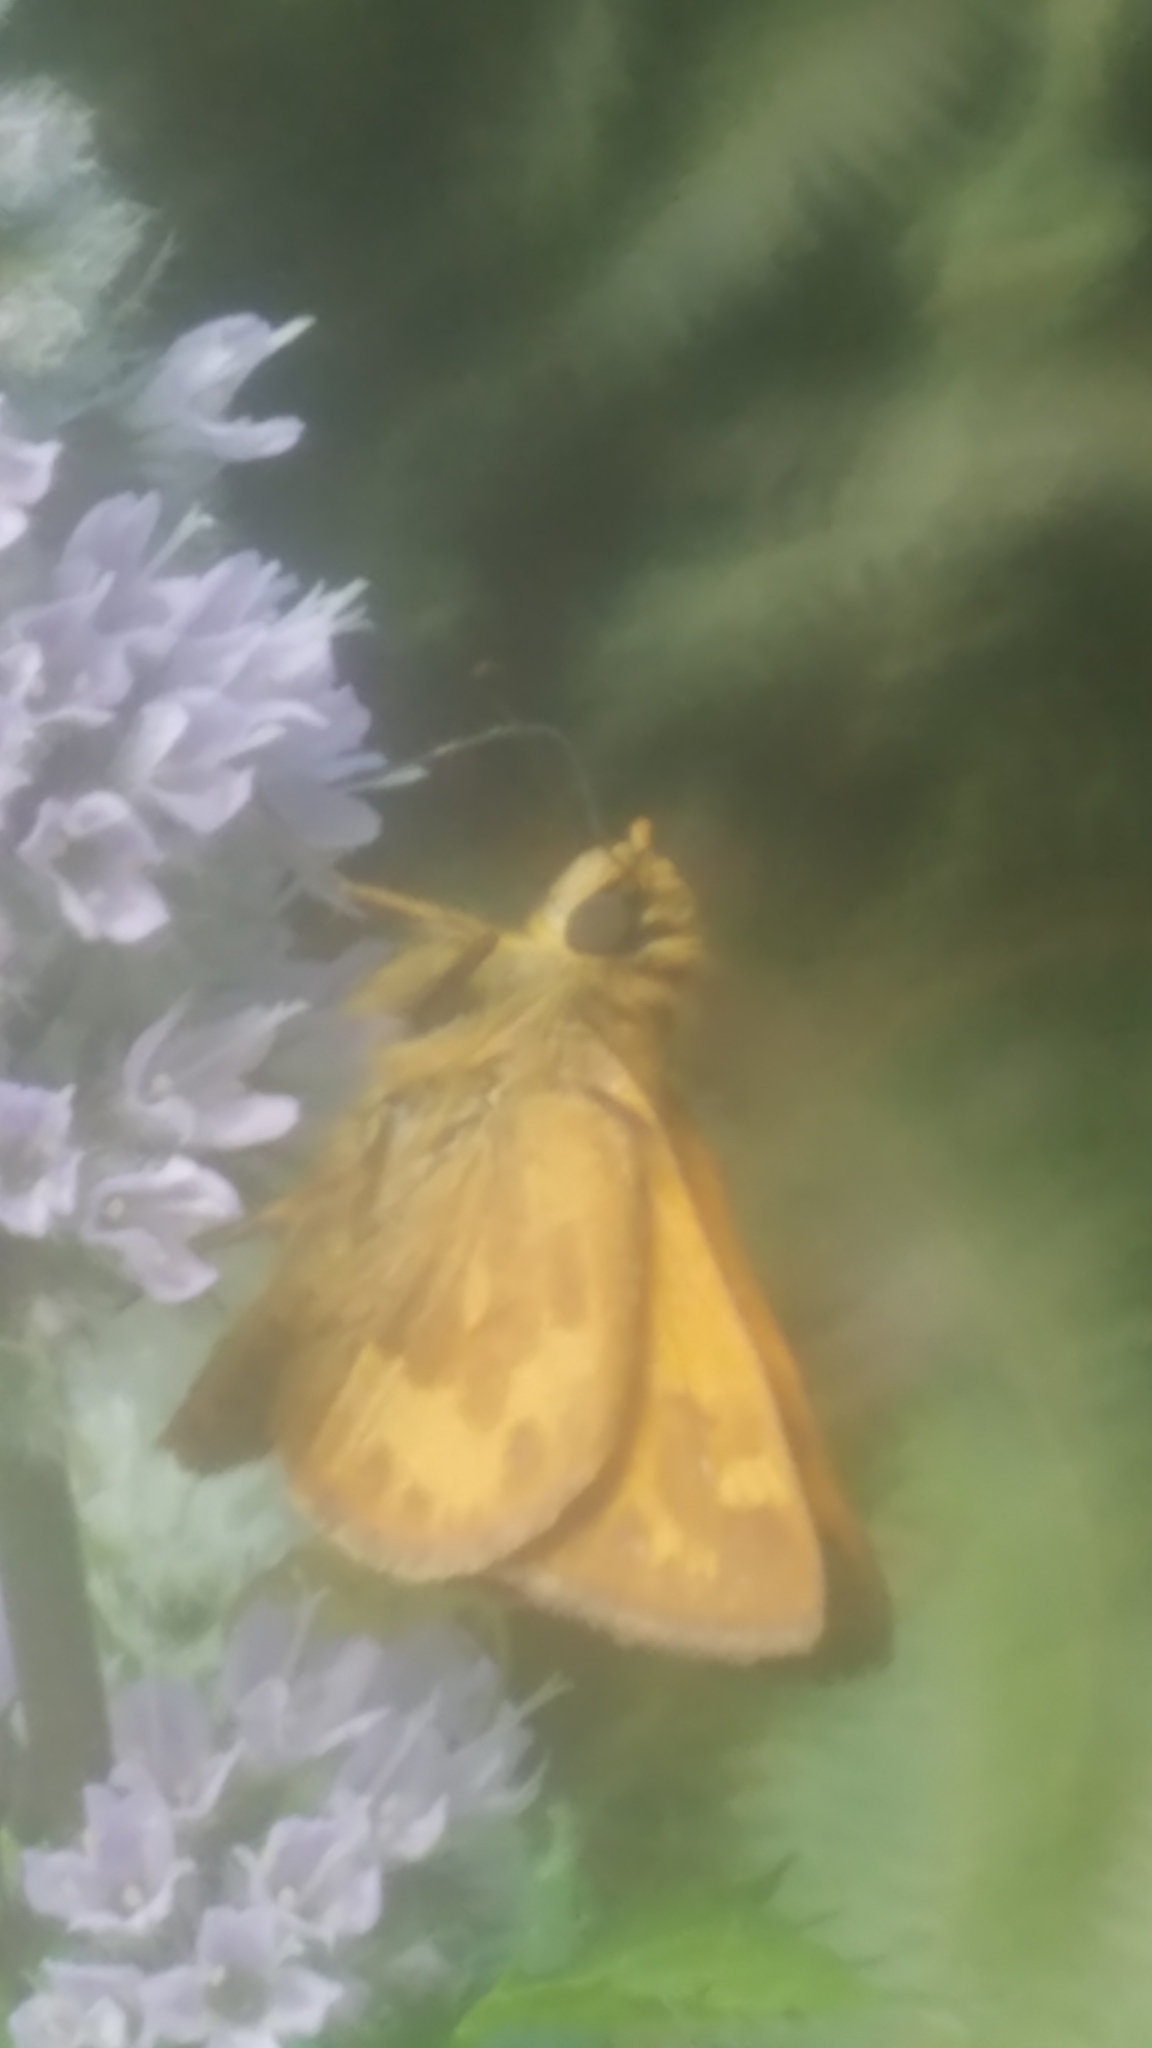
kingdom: Animalia
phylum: Arthropoda
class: Insecta
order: Lepidoptera
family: Hesperiidae
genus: Ochlodes
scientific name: Ochlodes sylvanoides
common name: Woodland skipper
